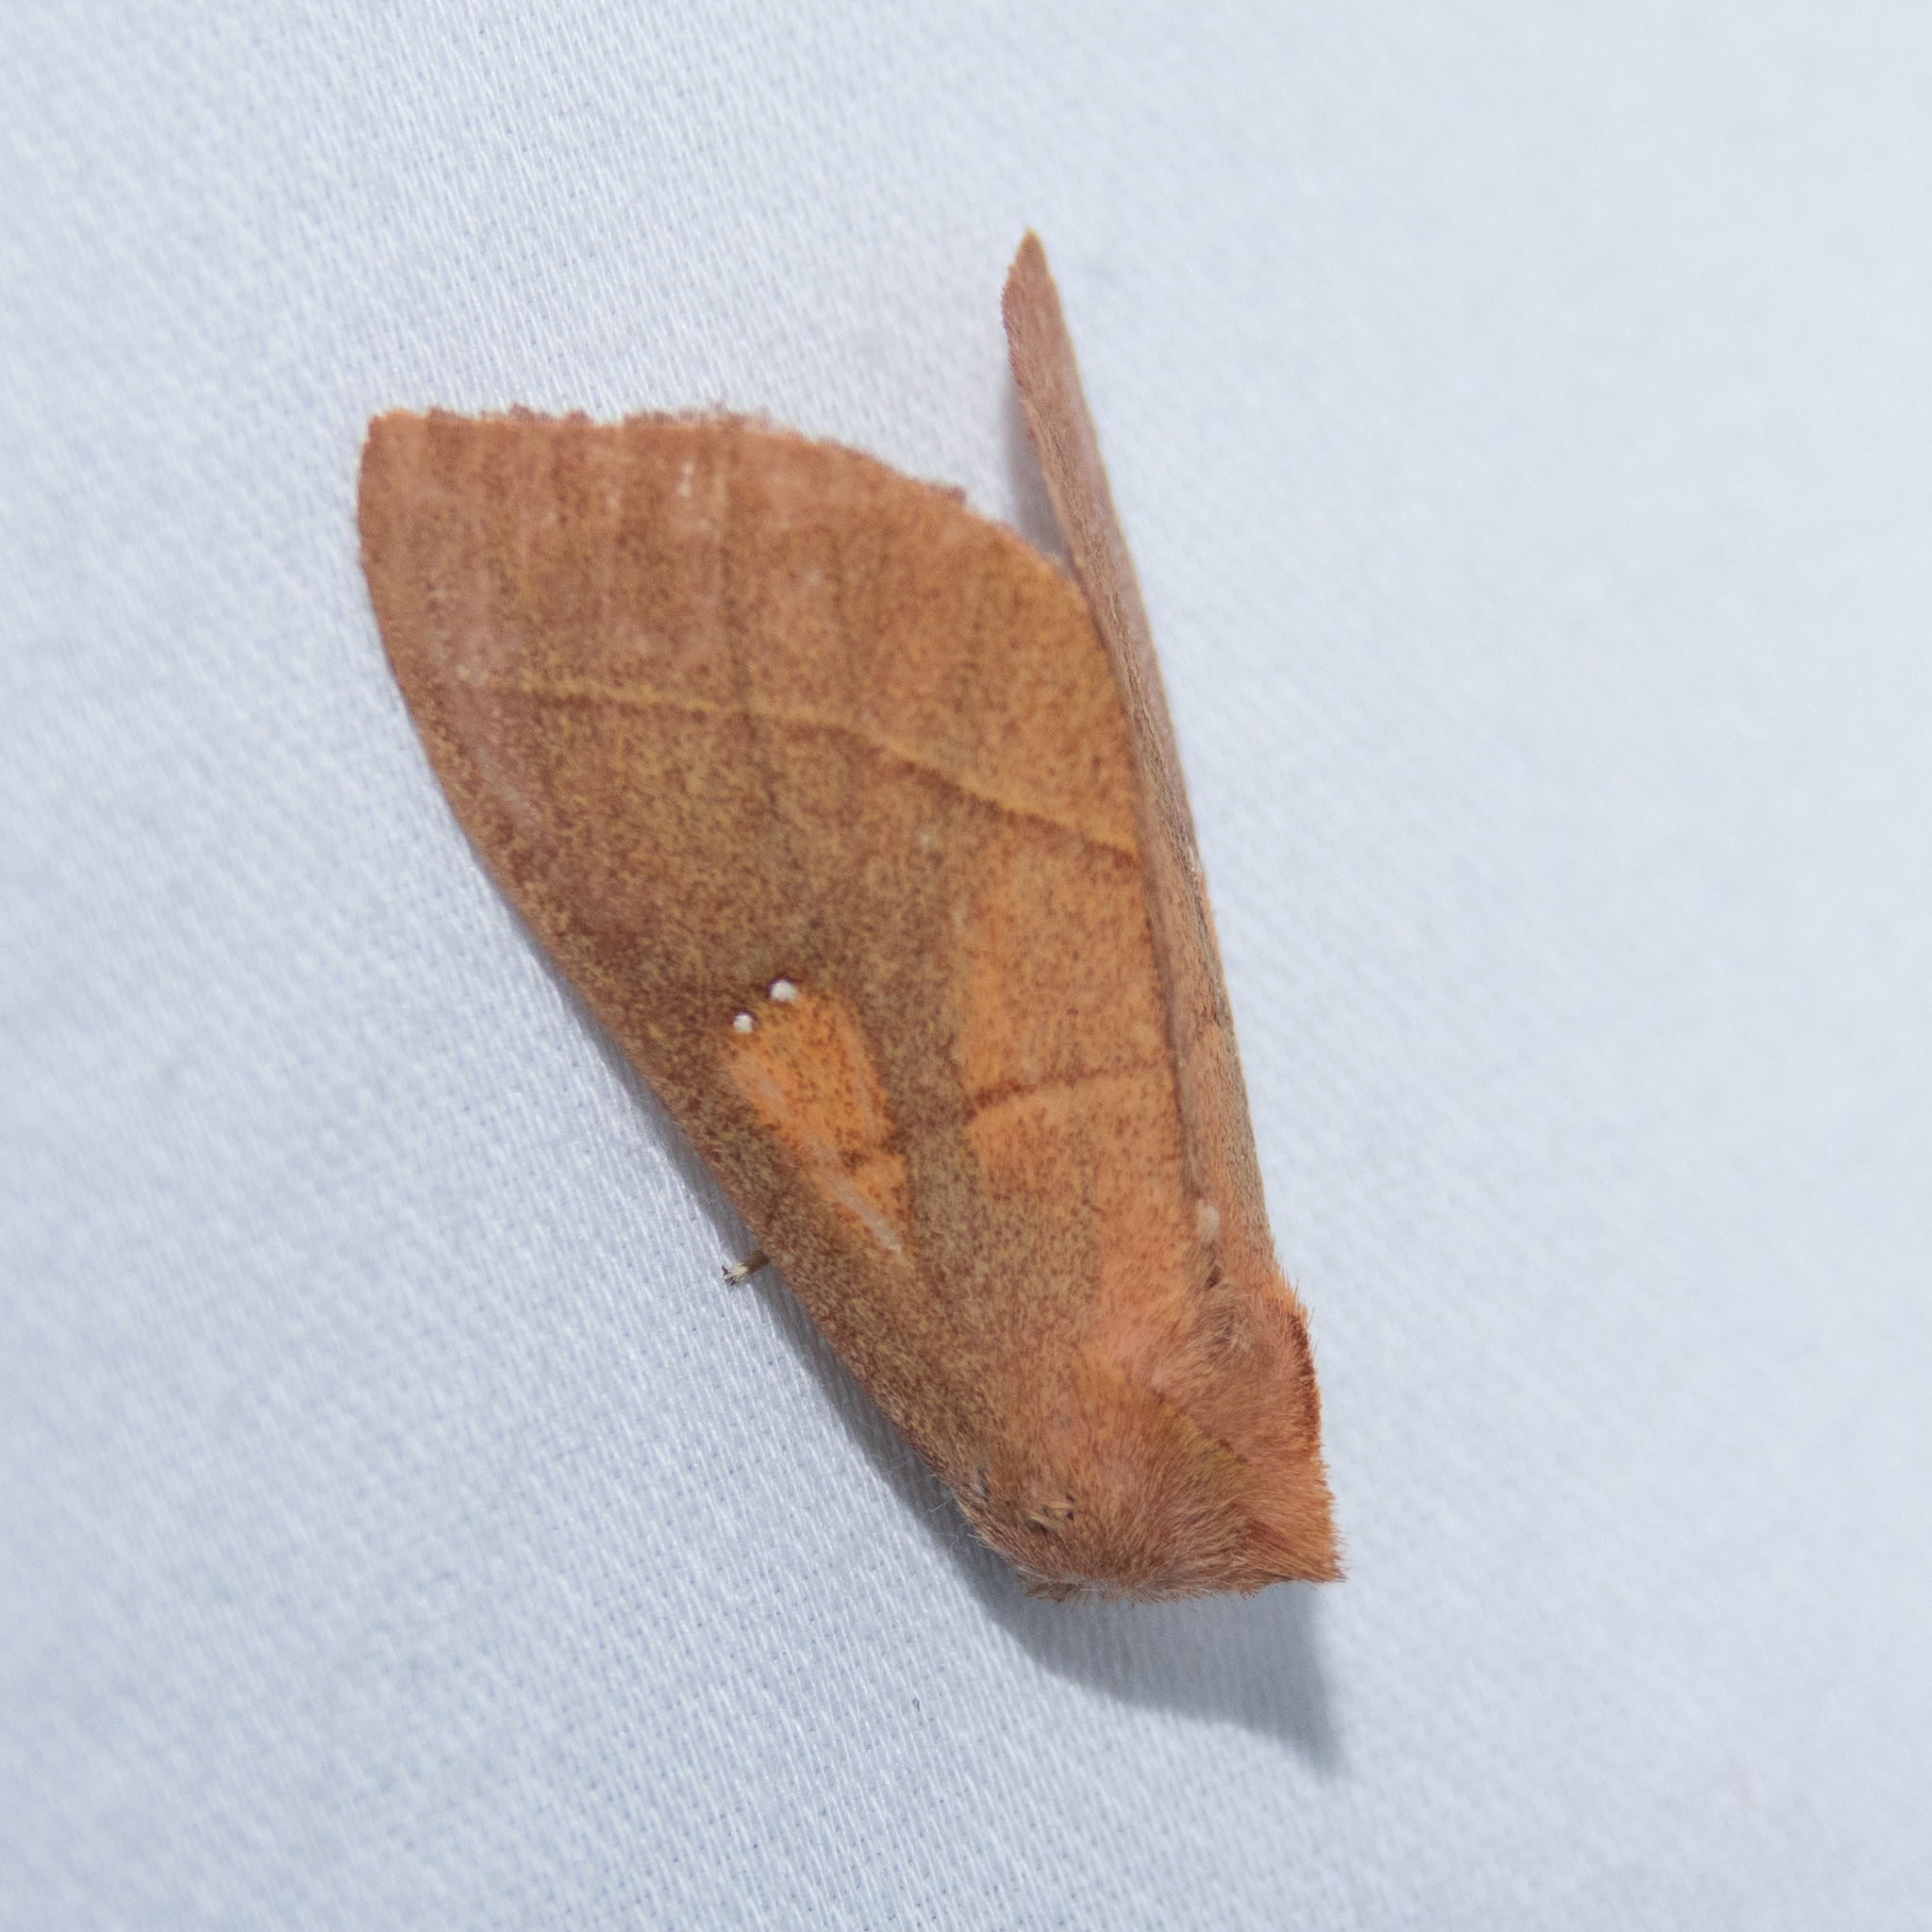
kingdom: Animalia
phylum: Arthropoda
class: Insecta
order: Lepidoptera
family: Notodontidae
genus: Nadata
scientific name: Nadata gibbosa
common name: White-dotted prominent
